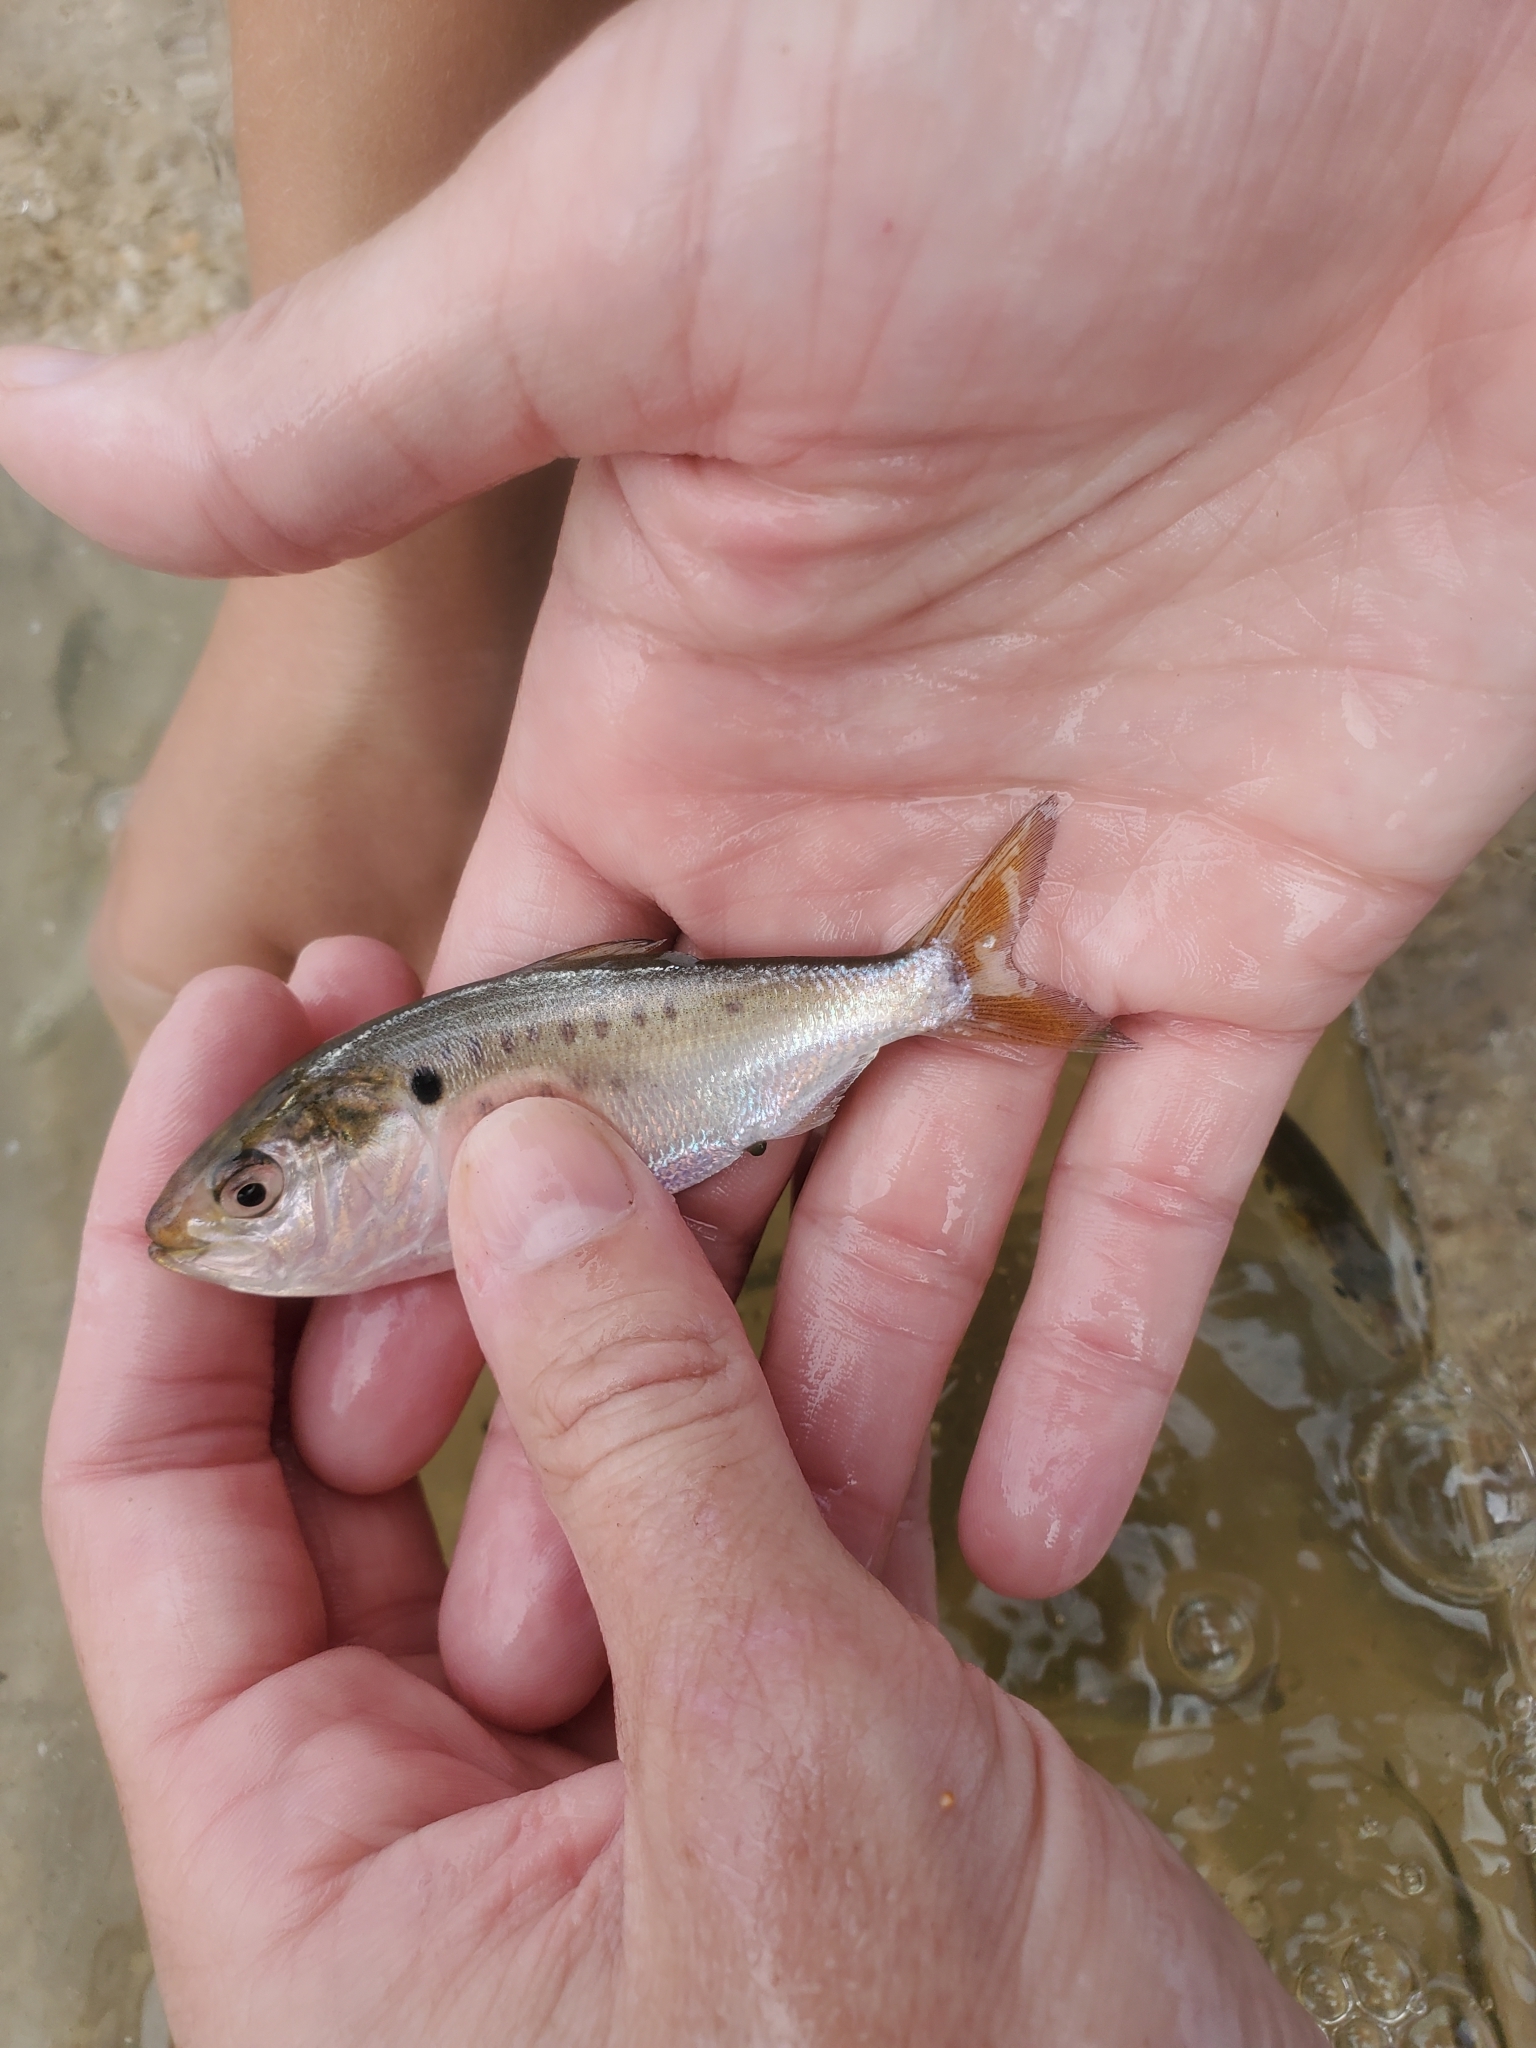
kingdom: Animalia
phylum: Chordata
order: Clupeiformes
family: Clupeidae
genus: Brevoortia
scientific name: Brevoortia tyrannus
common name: Atlantic menhaden
